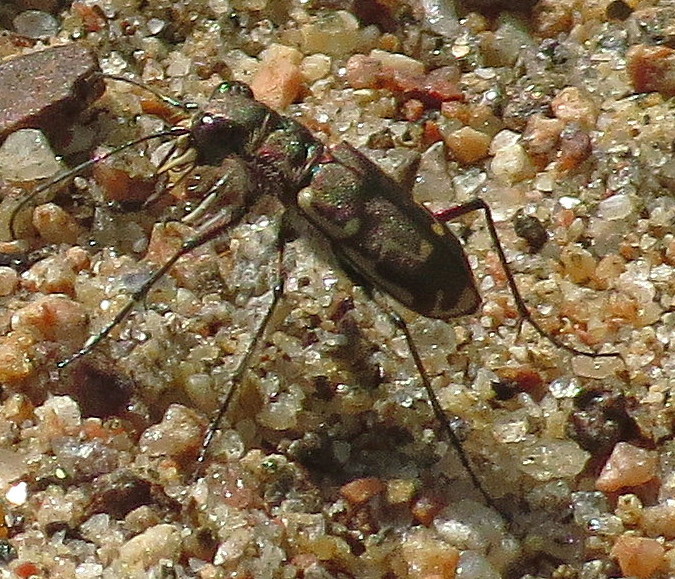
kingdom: Animalia
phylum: Arthropoda
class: Insecta
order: Coleoptera
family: Carabidae
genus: Cicindela
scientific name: Cicindela repanda
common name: Bronzed tiger beetle
